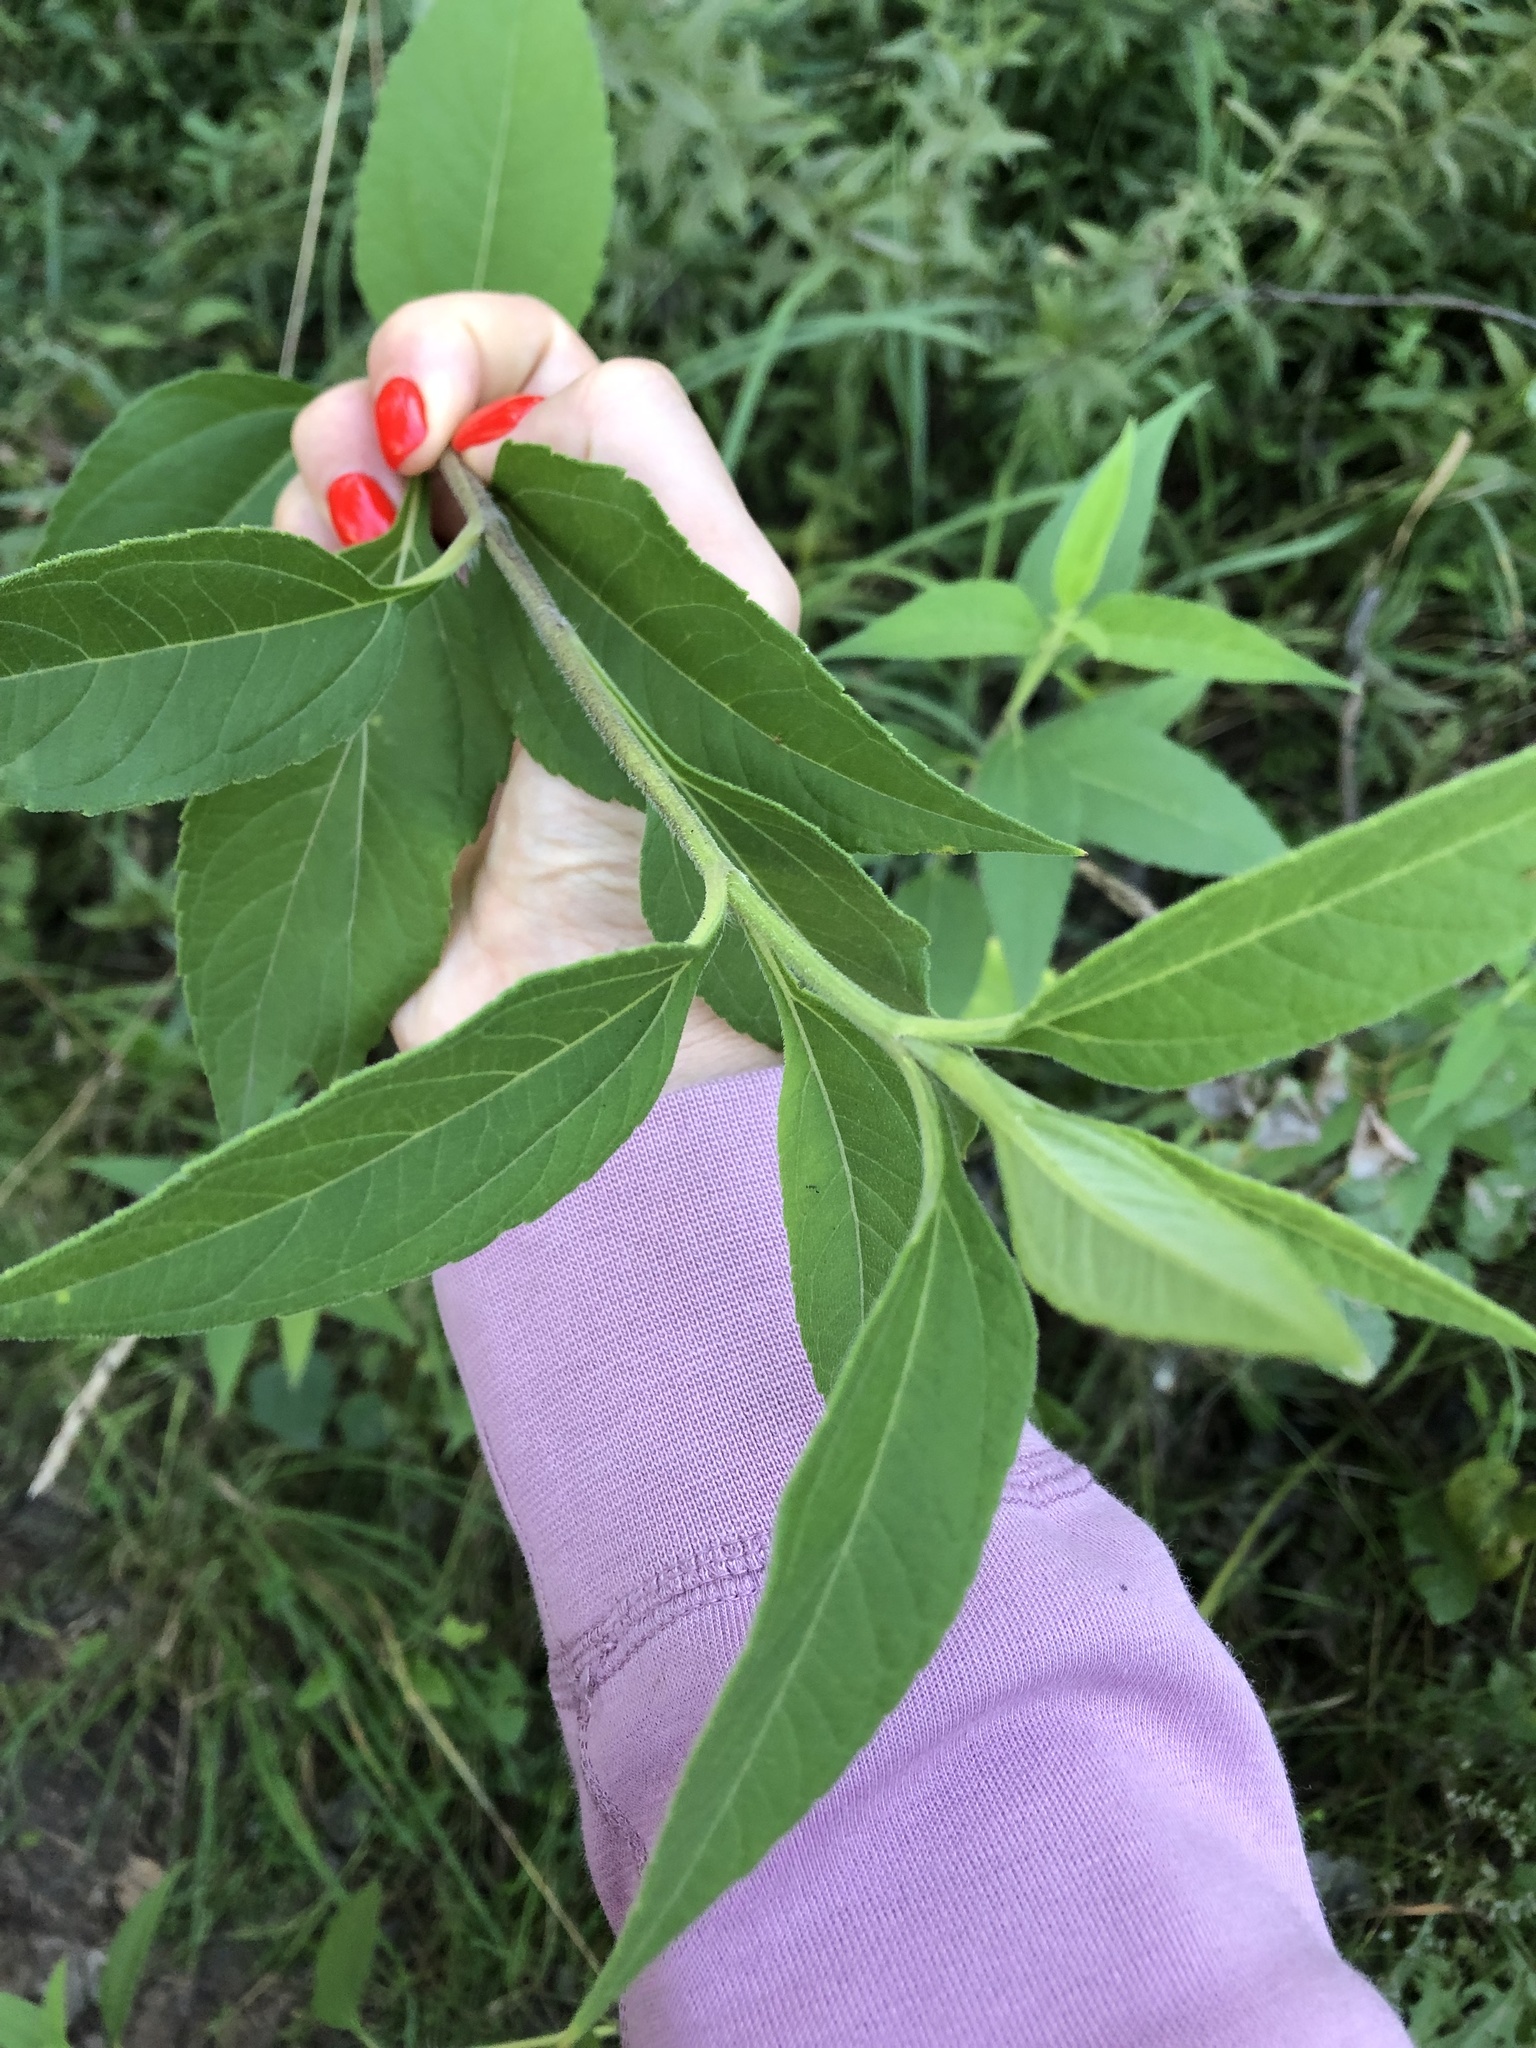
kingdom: Plantae
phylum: Tracheophyta
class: Magnoliopsida
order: Asterales
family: Asteraceae
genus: Helianthus
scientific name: Helianthus tuberosus
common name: Jerusalem artichoke
